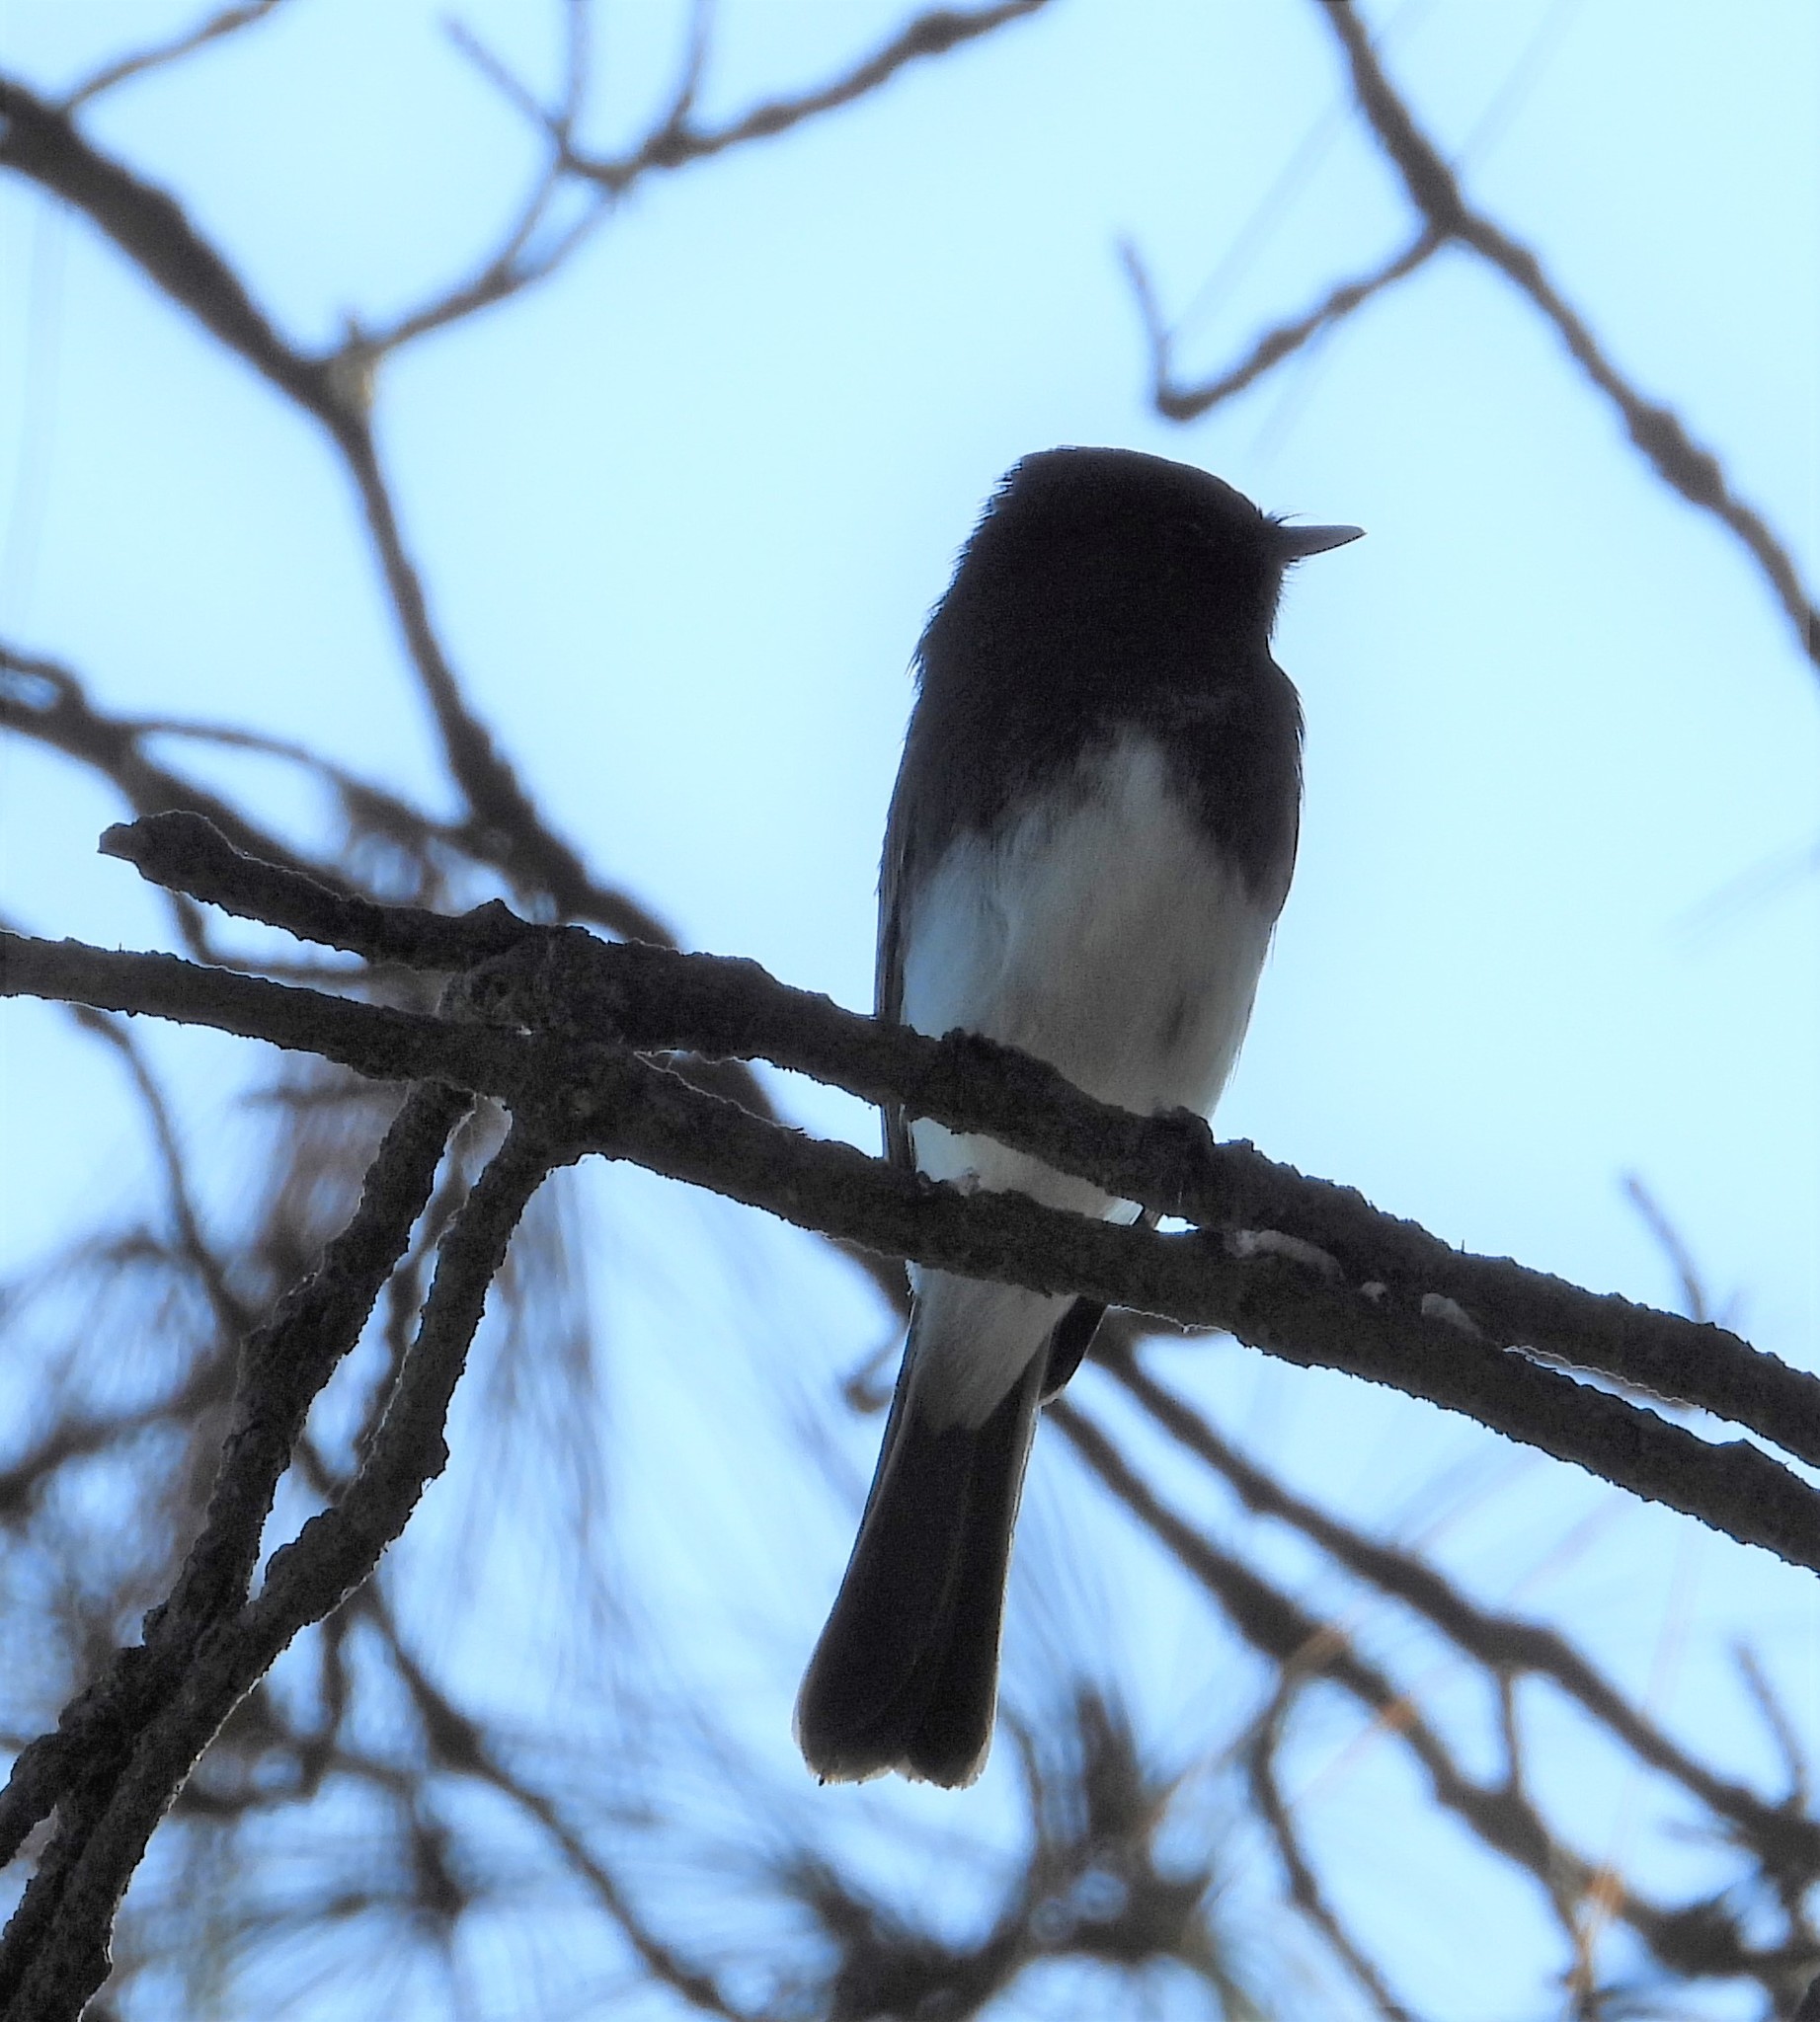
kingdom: Animalia
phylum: Chordata
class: Aves
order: Passeriformes
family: Tyrannidae
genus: Sayornis
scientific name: Sayornis nigricans
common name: Black phoebe
